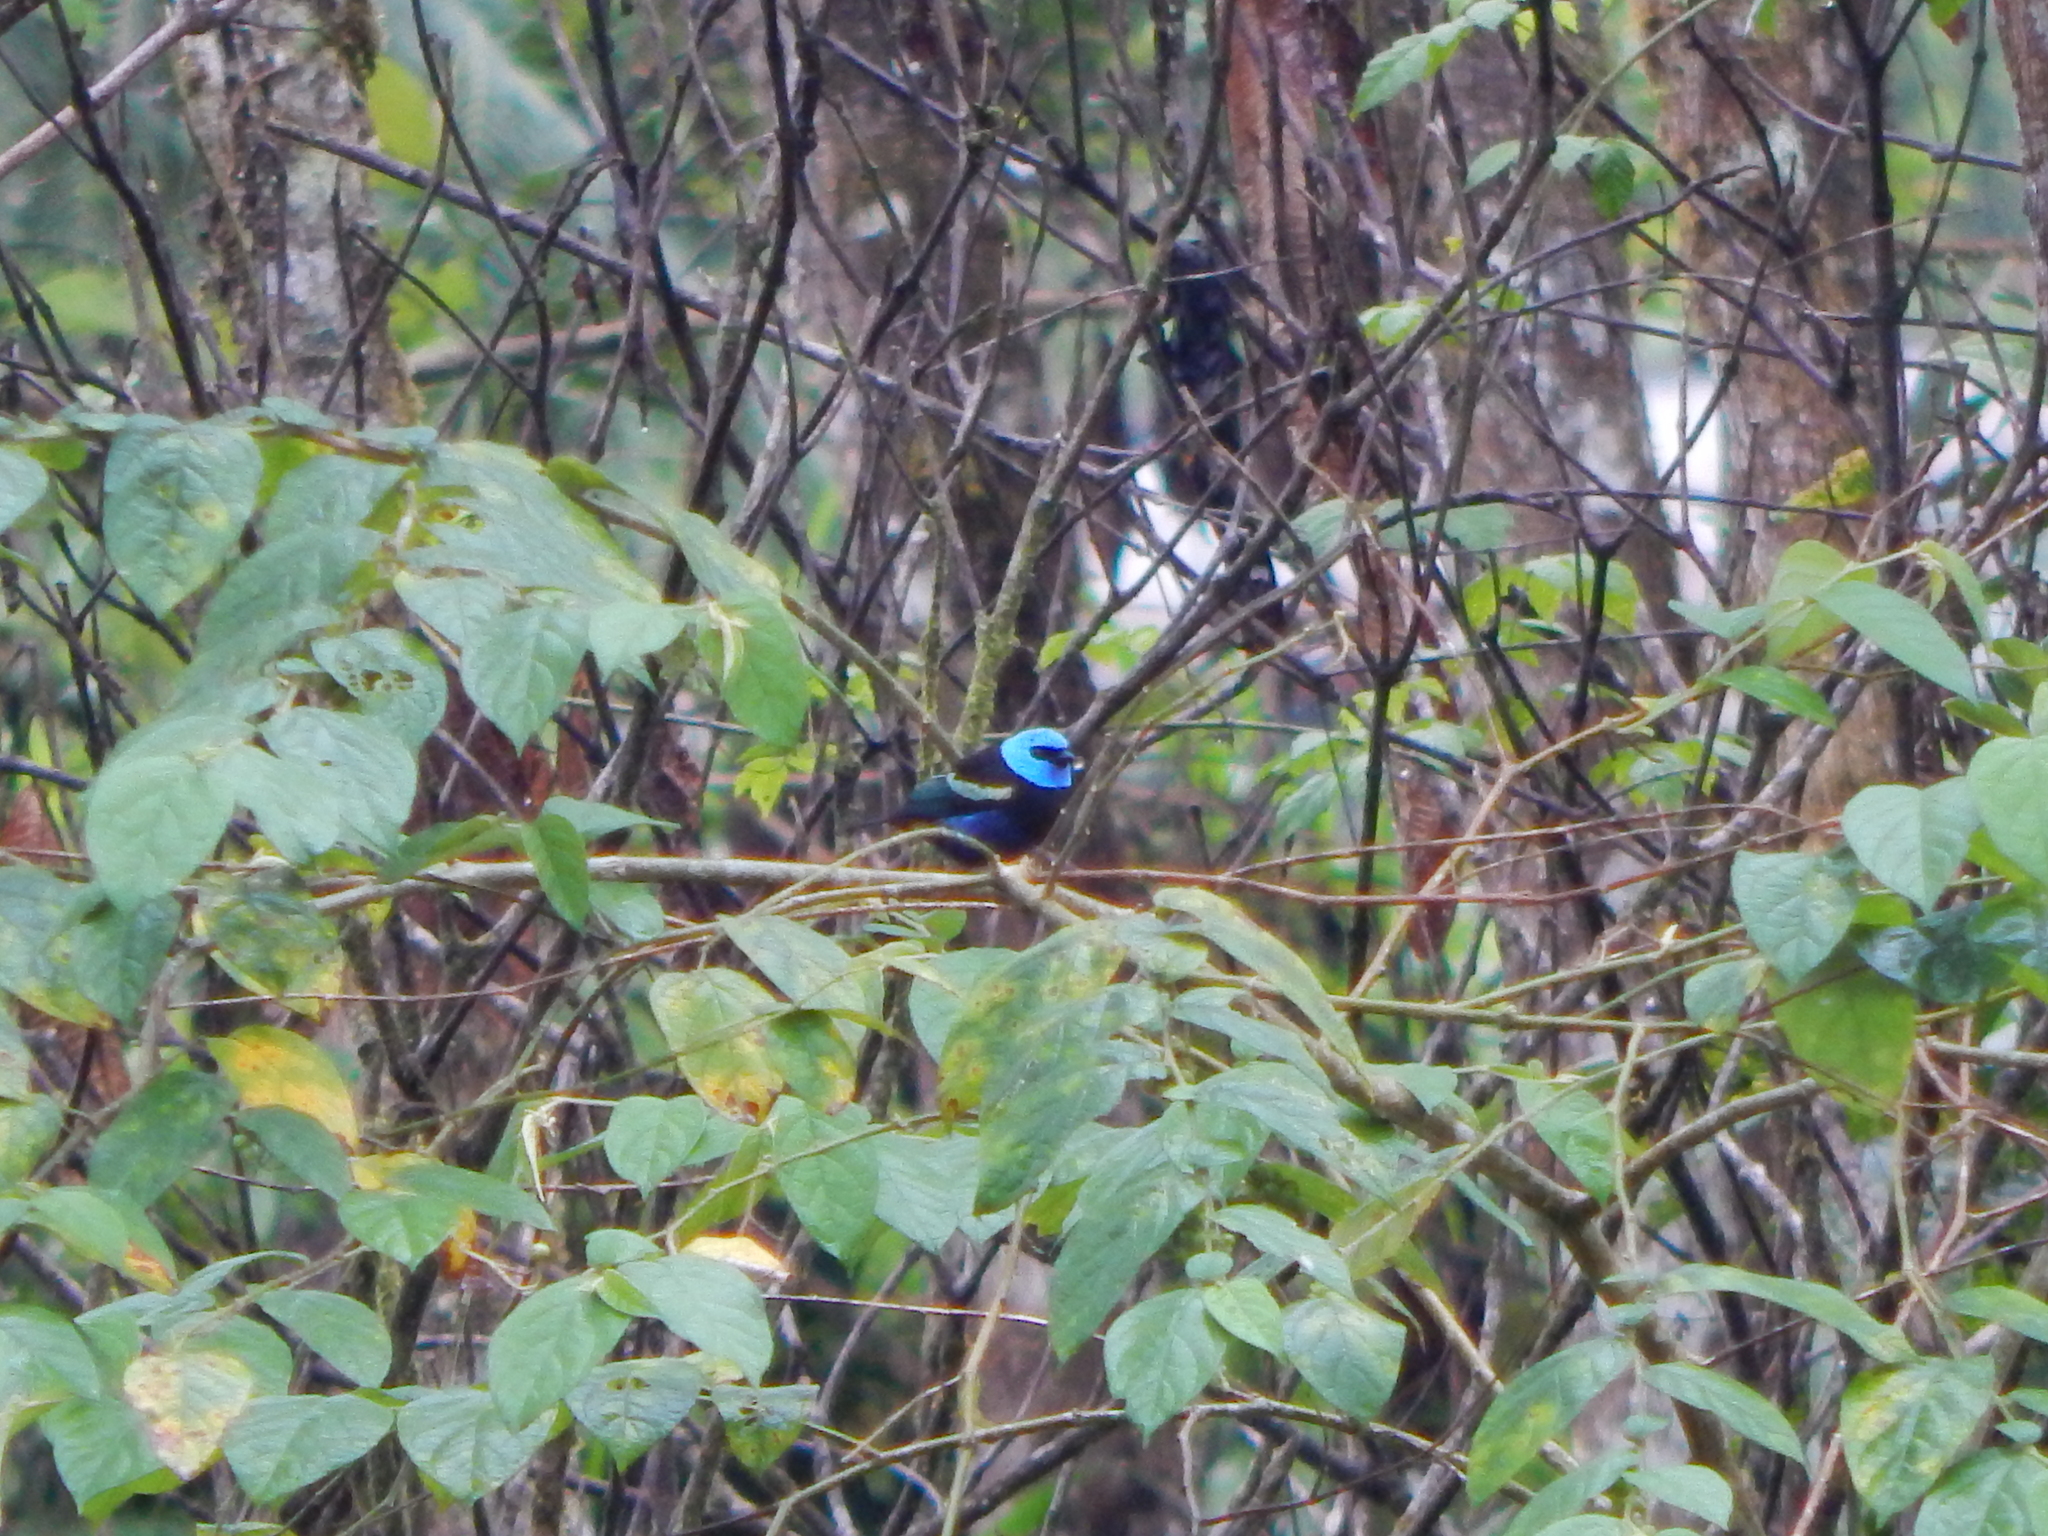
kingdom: Animalia
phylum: Chordata
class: Aves
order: Passeriformes
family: Thraupidae
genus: Stilpnia
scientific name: Stilpnia cyanicollis
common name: Blue-necked tanager
